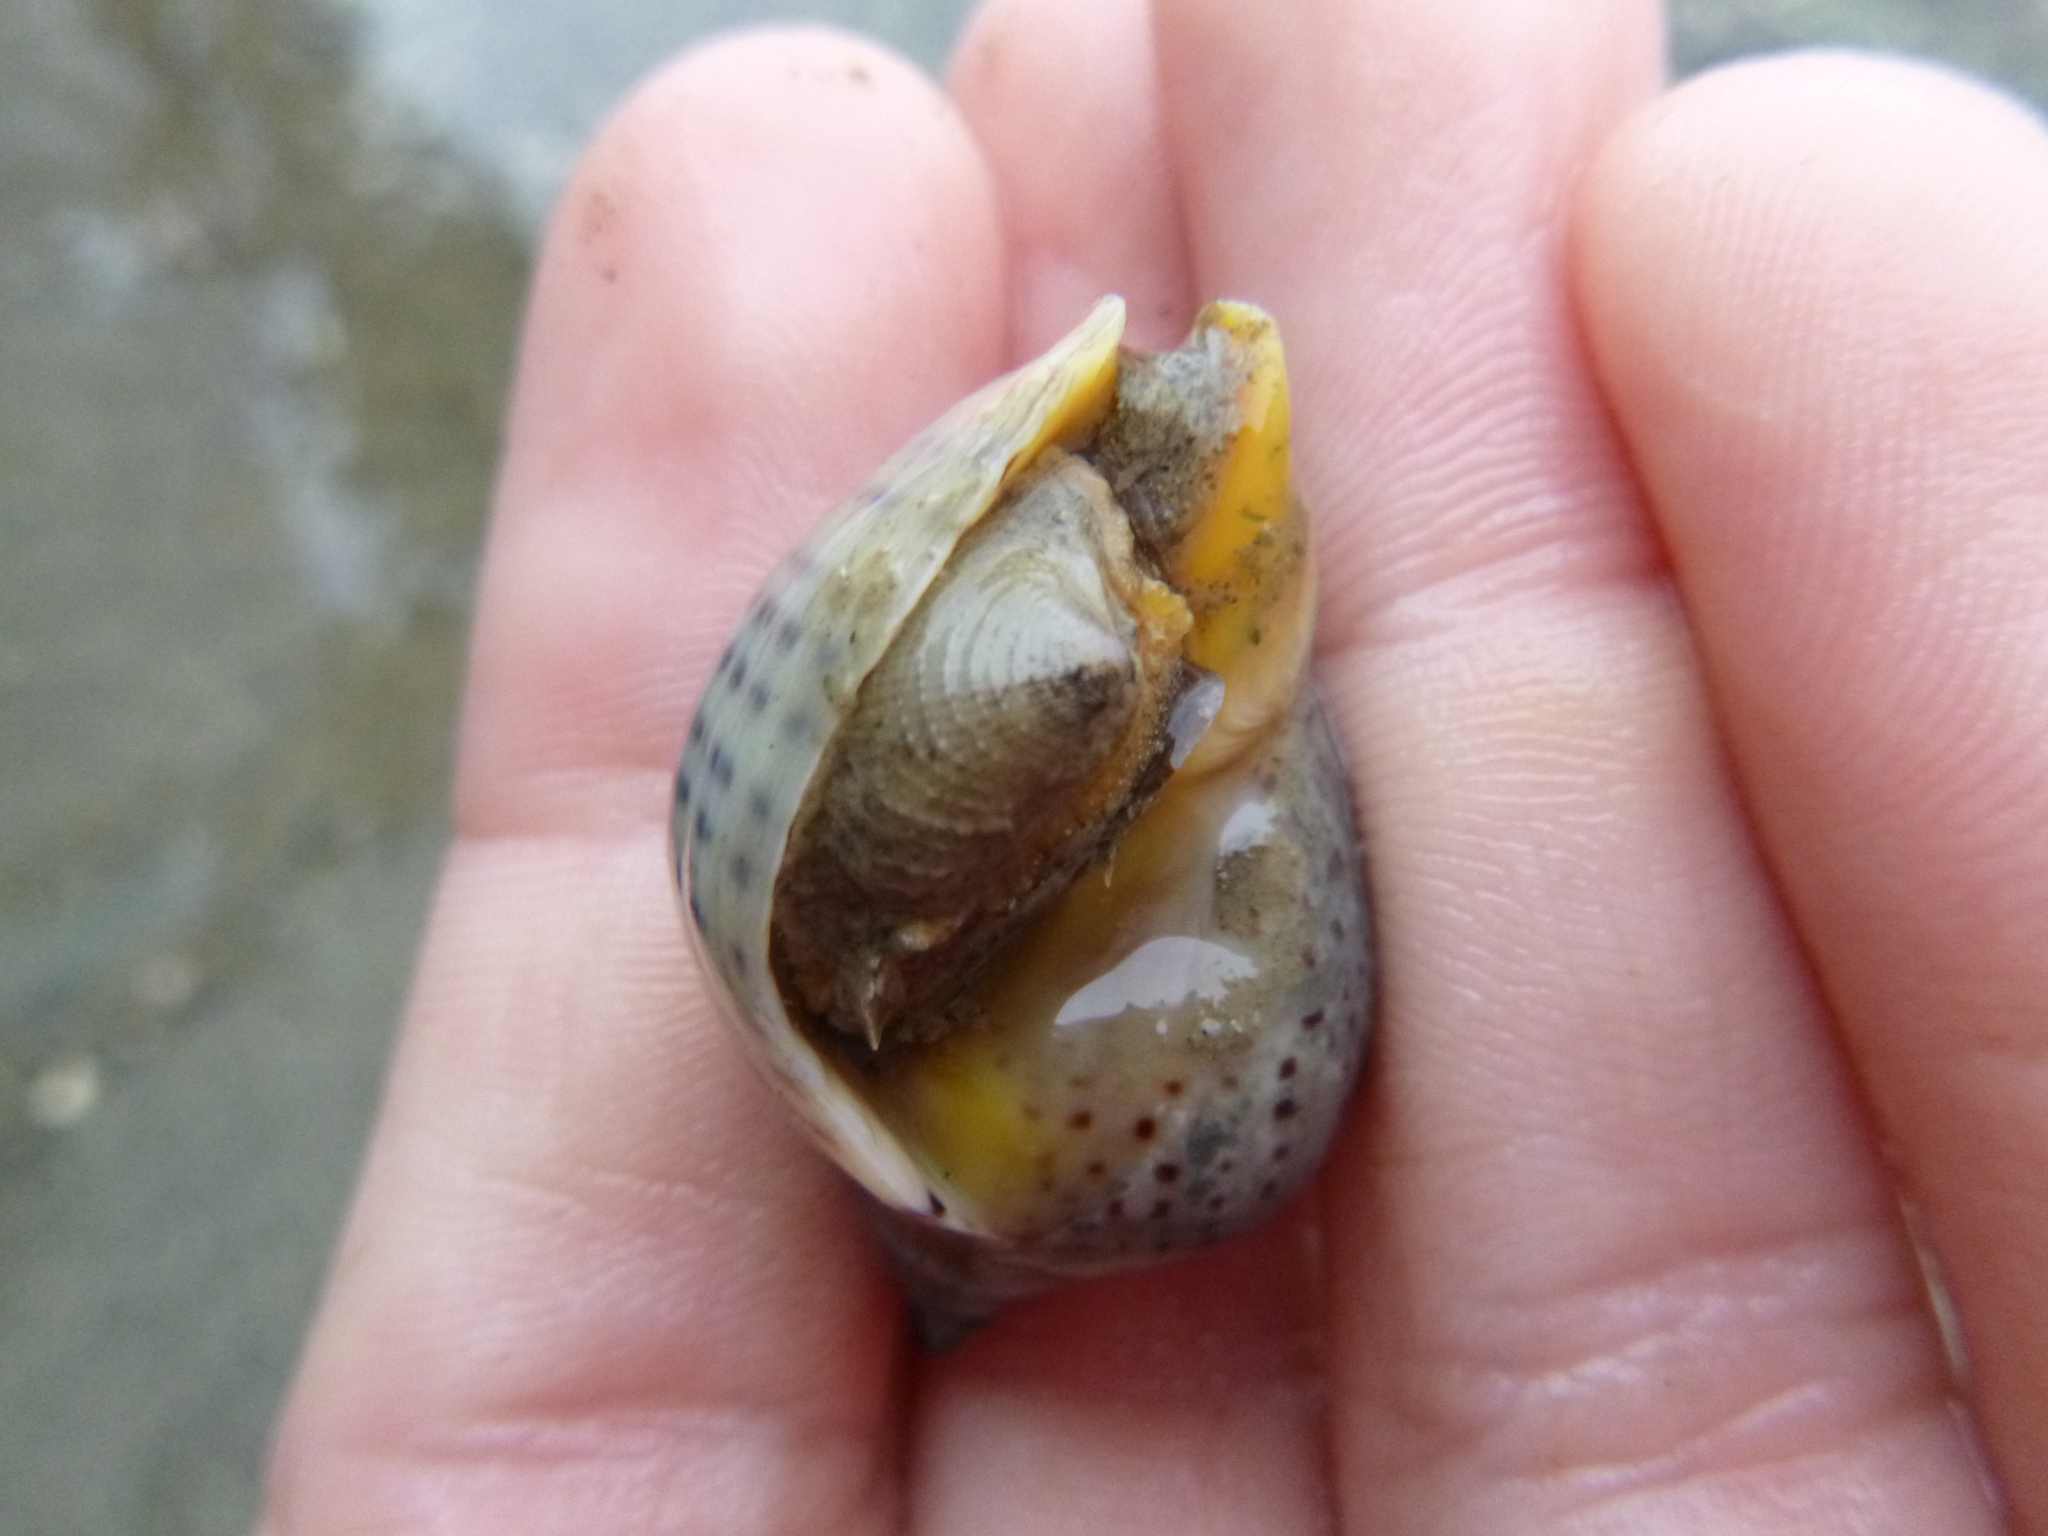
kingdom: Animalia
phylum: Mollusca
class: Gastropoda
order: Neogastropoda
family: Cominellidae
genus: Cominella
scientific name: Cominella adspersa
